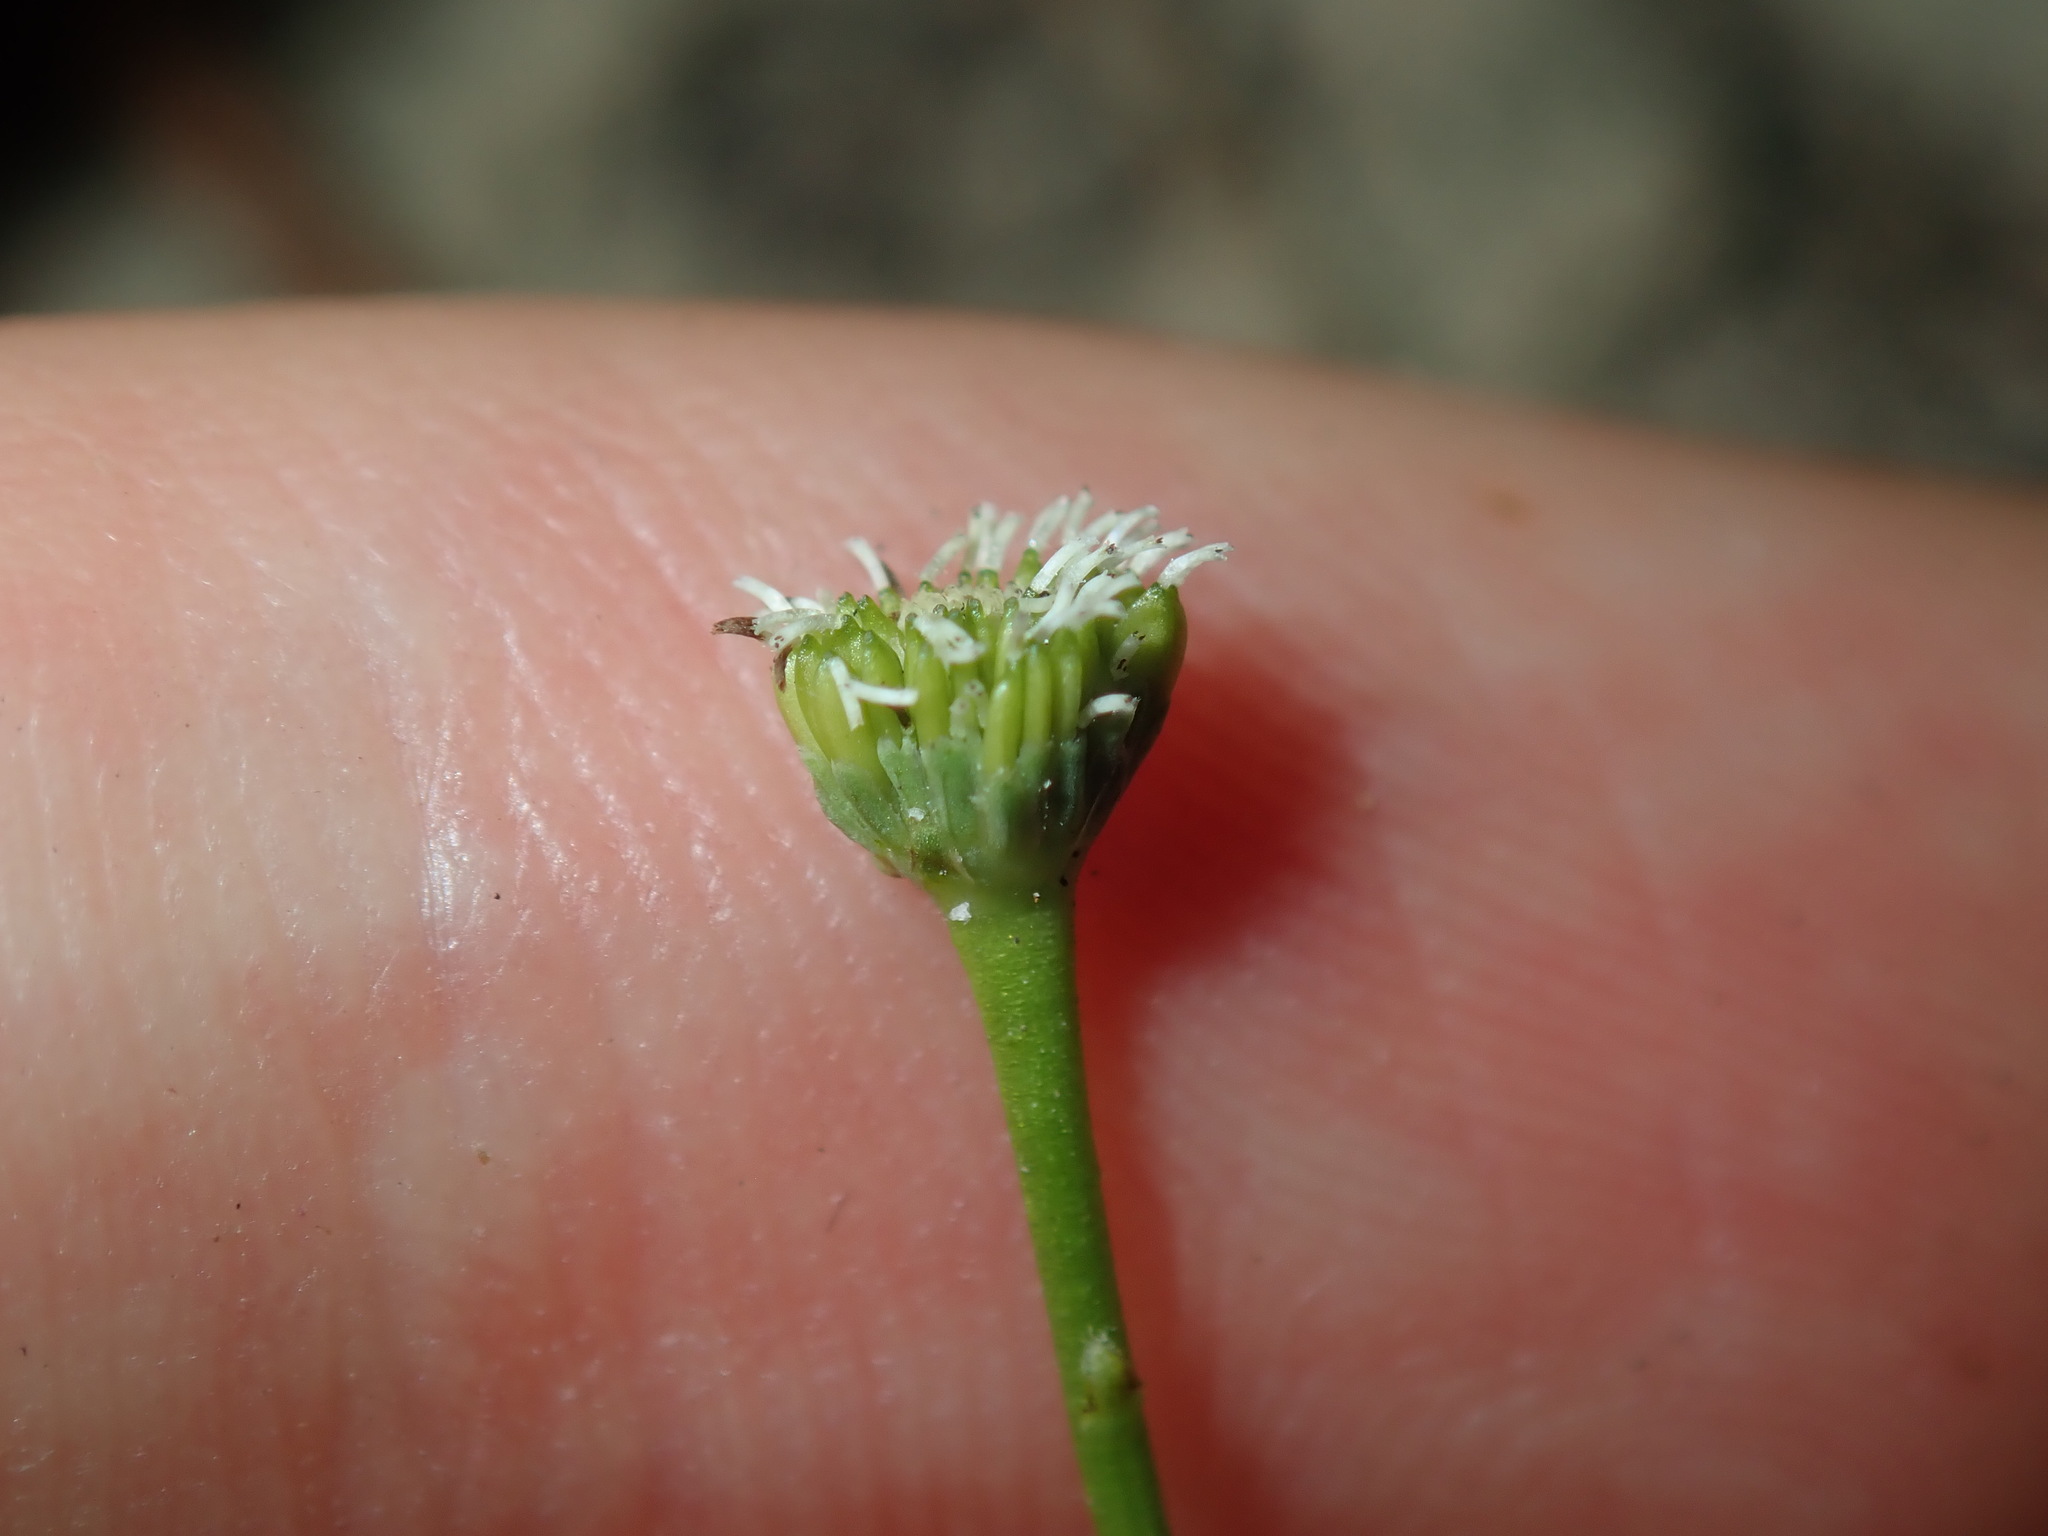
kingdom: Plantae
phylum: Tracheophyta
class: Magnoliopsida
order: Asterales
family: Asteraceae
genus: Solenogyne
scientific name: Solenogyne bellioides
